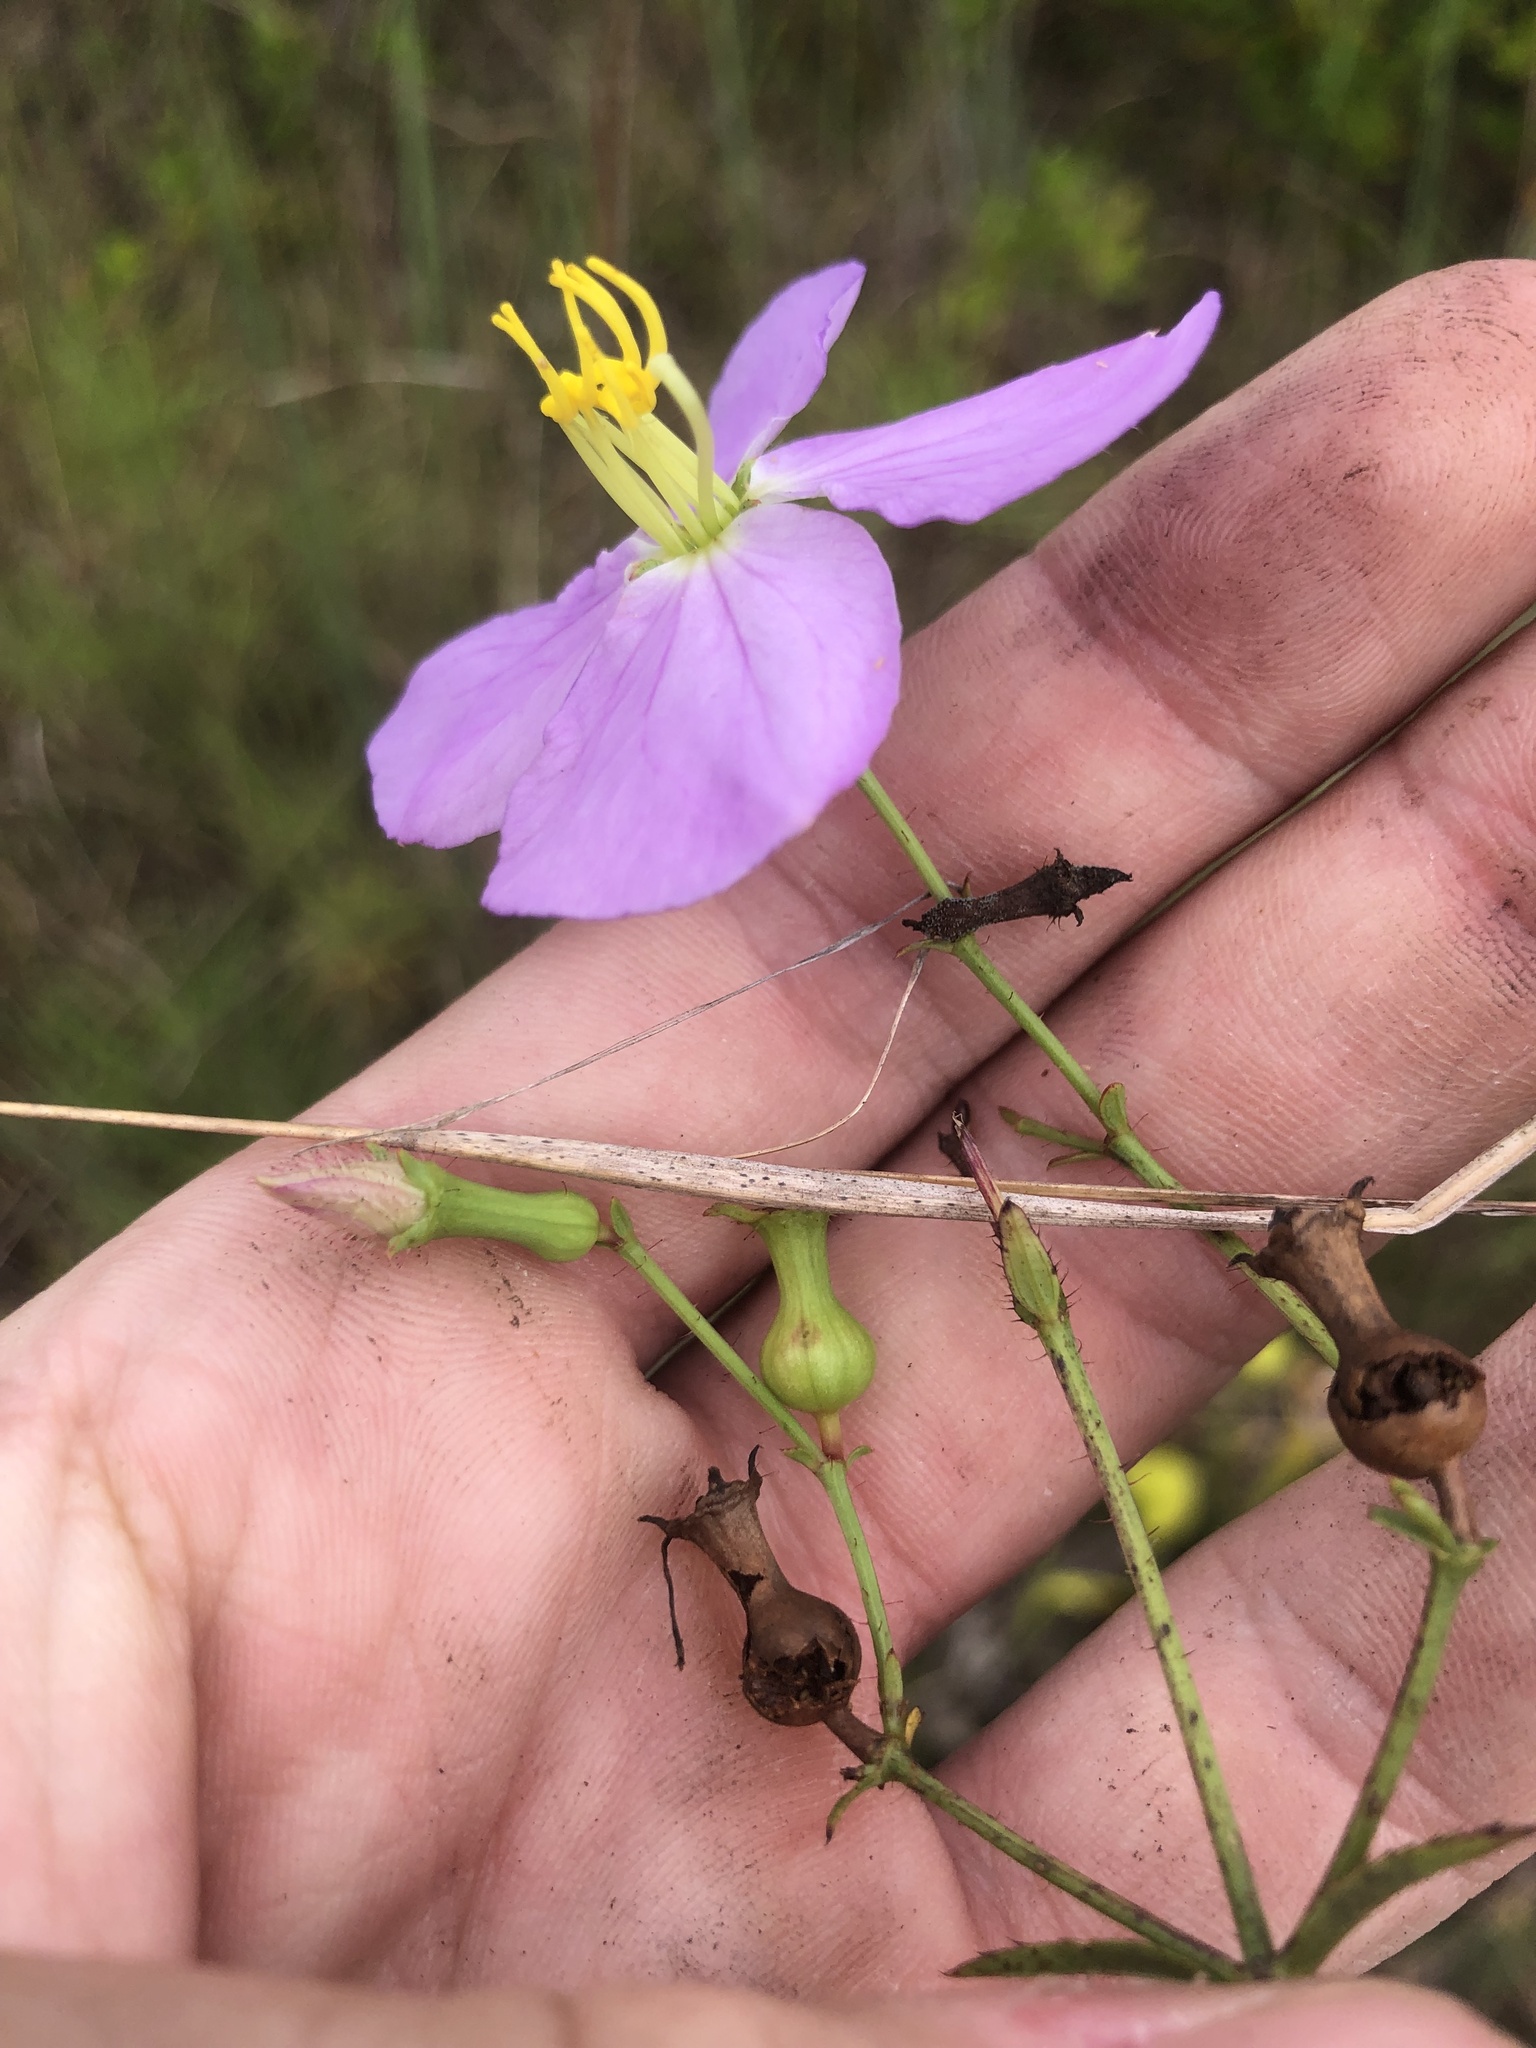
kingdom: Plantae
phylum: Tracheophyta
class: Magnoliopsida
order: Myrtales
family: Melastomataceae
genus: Rhexia
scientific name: Rhexia nashii
